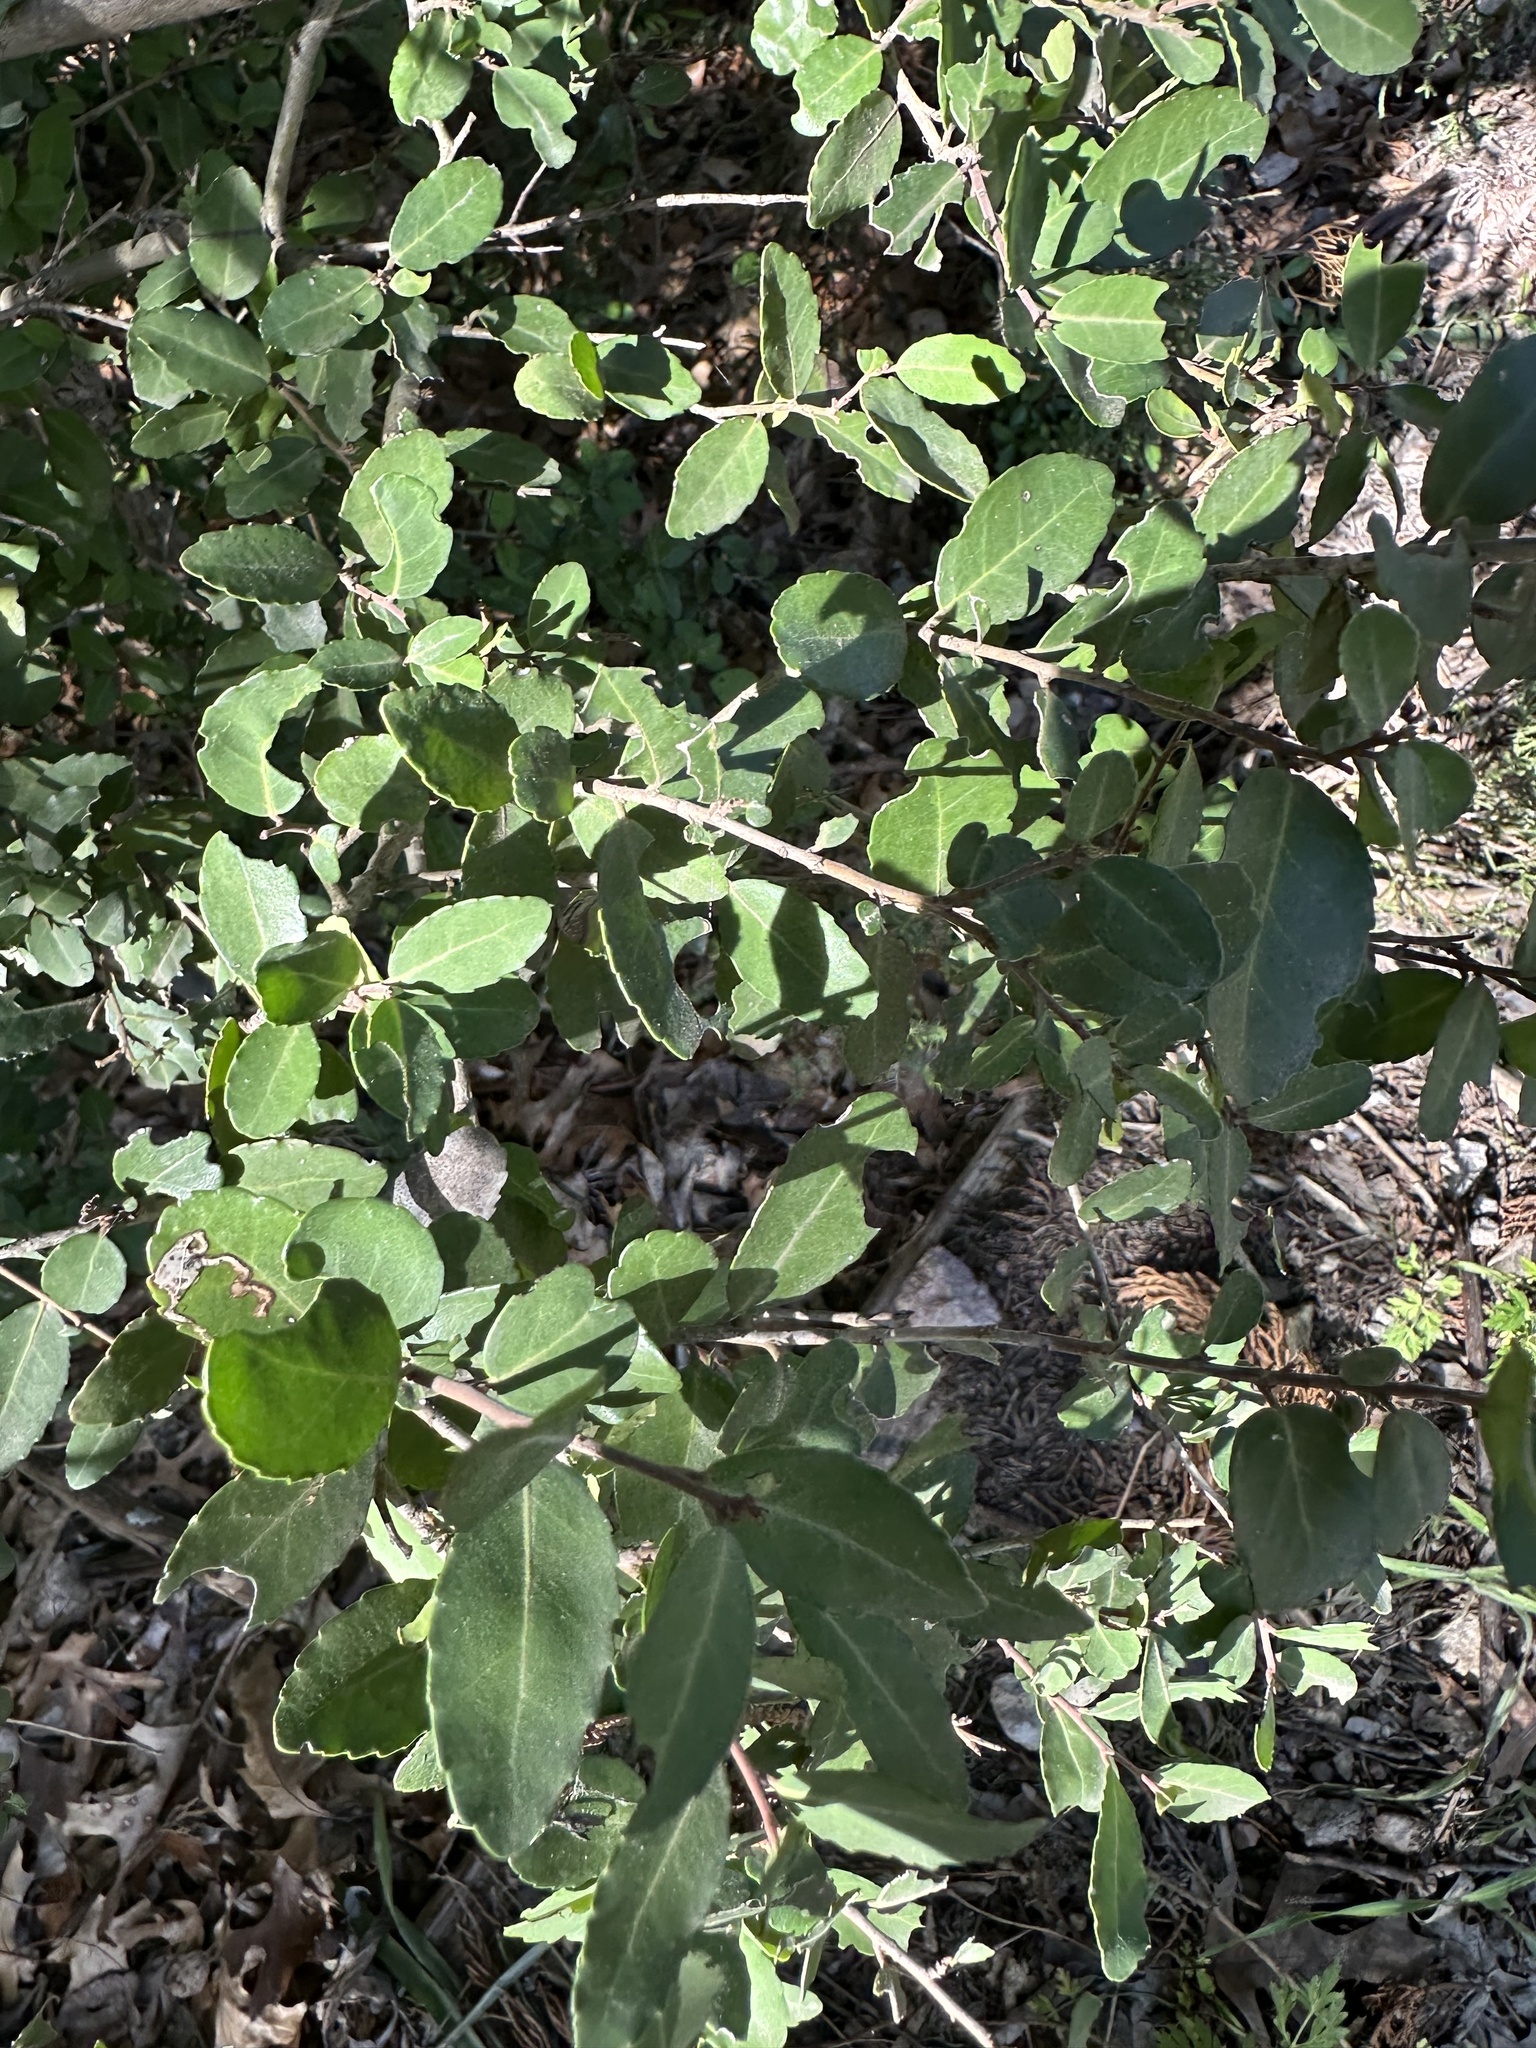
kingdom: Plantae
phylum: Tracheophyta
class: Magnoliopsida
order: Aquifoliales
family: Aquifoliaceae
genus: Ilex
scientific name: Ilex vomitoria
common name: Yaupon holly
